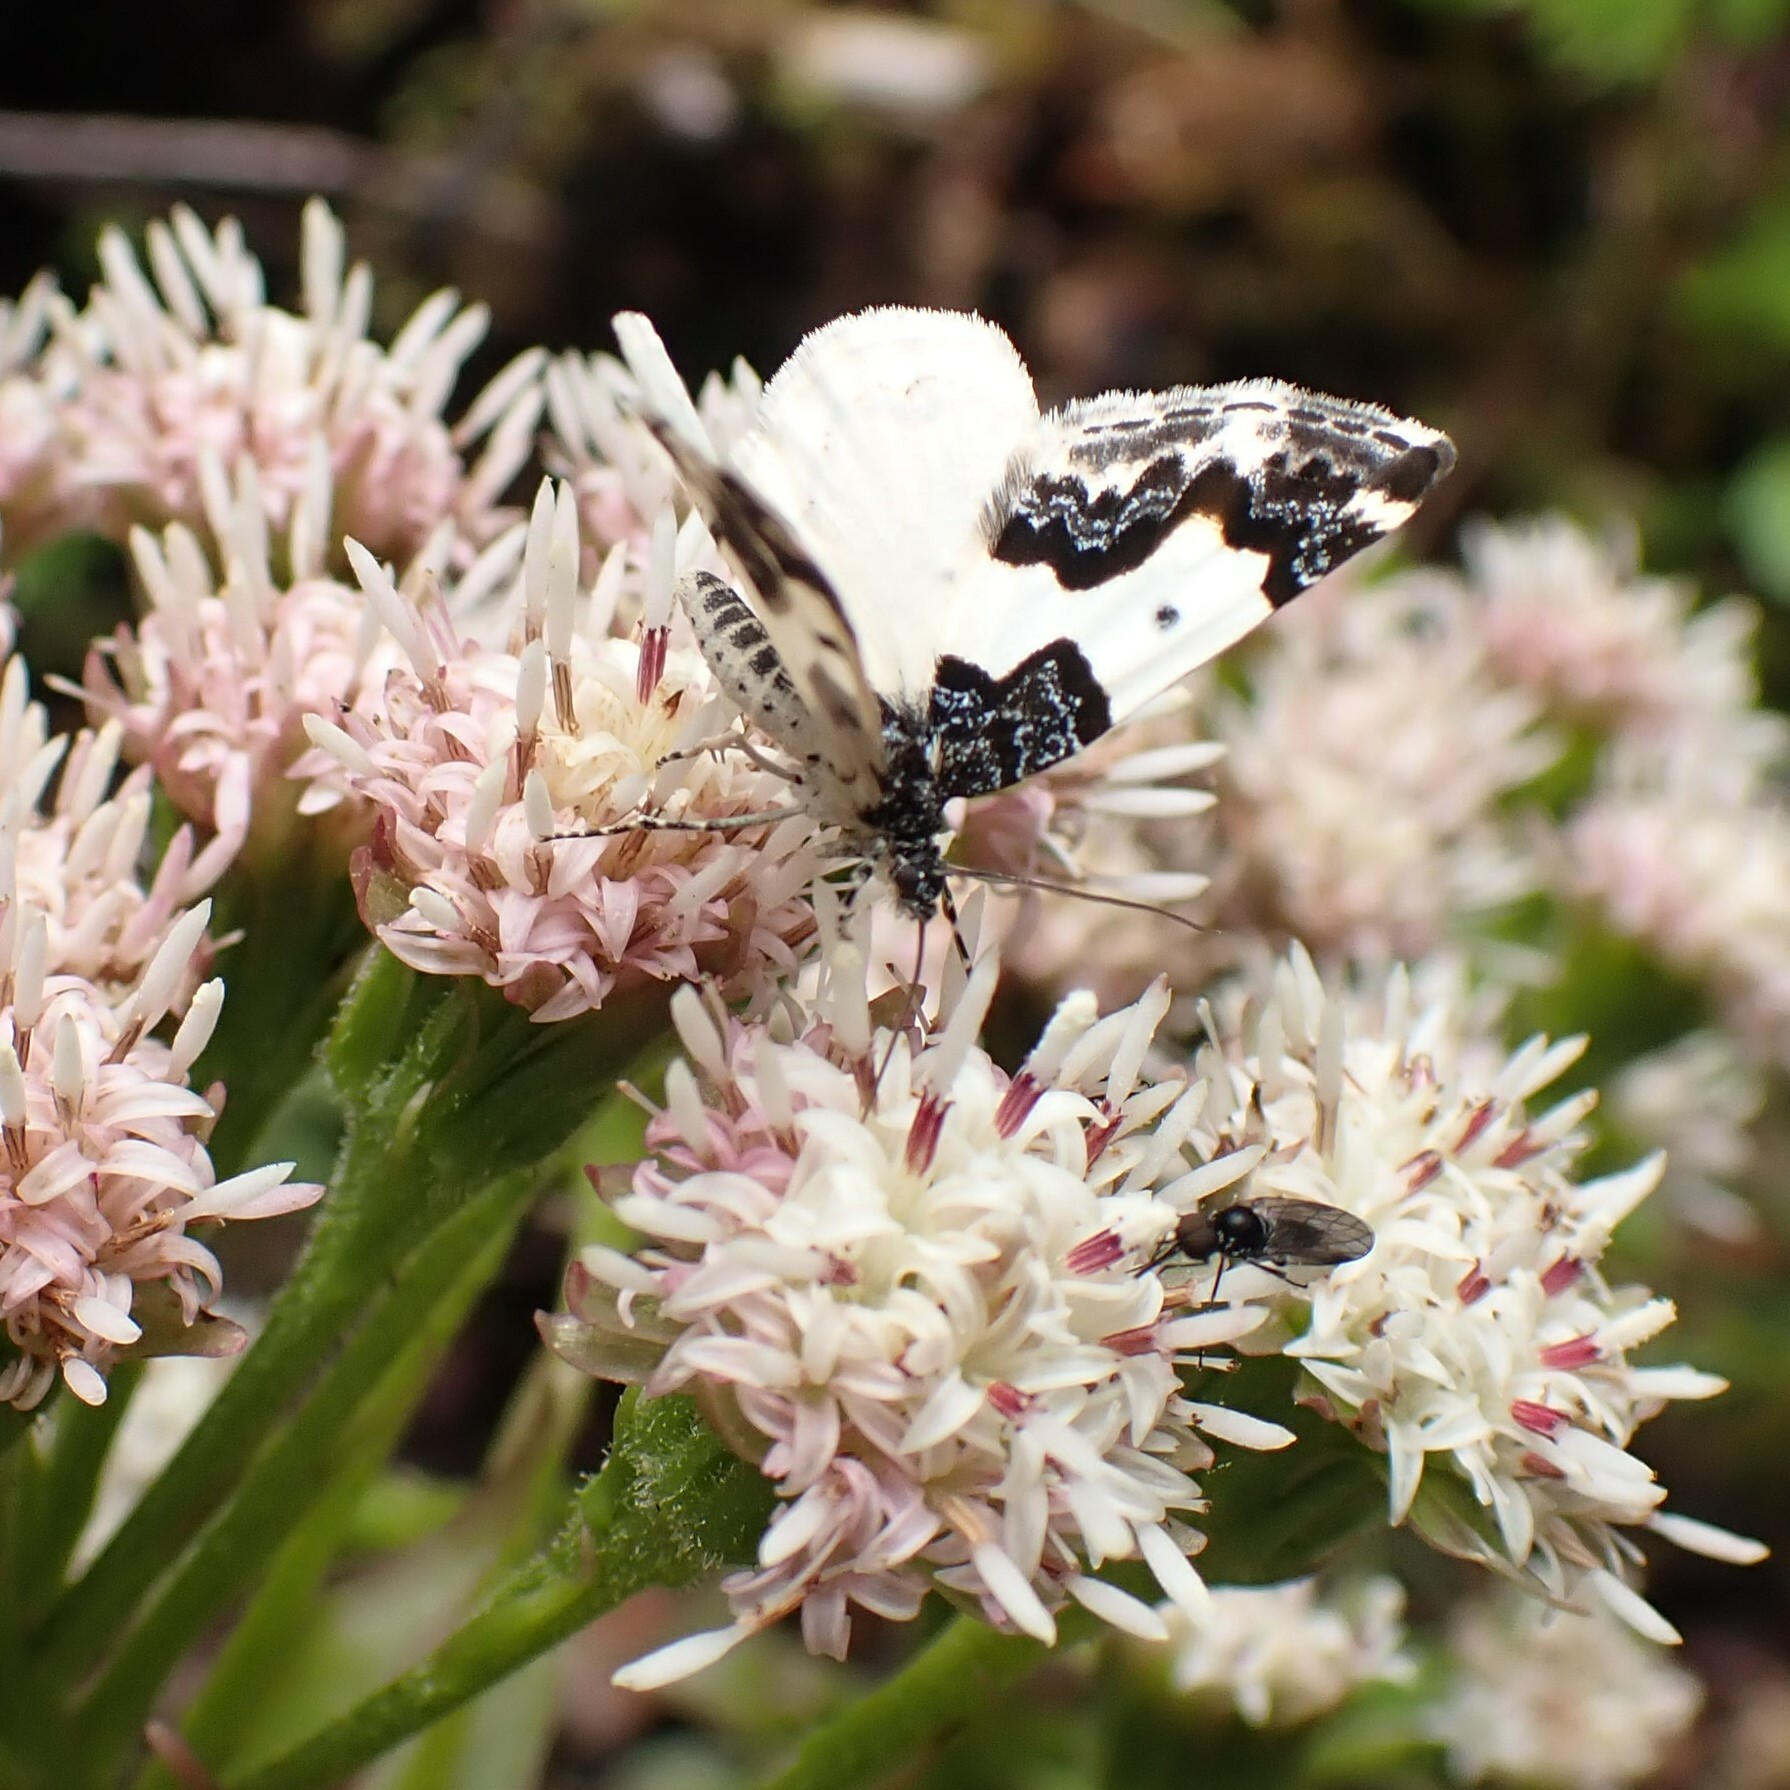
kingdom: Animalia
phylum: Arthropoda
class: Insecta
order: Lepidoptera
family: Geometridae
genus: Mesoleuca
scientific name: Mesoleuca gratulata
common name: Half-white carpet moth
